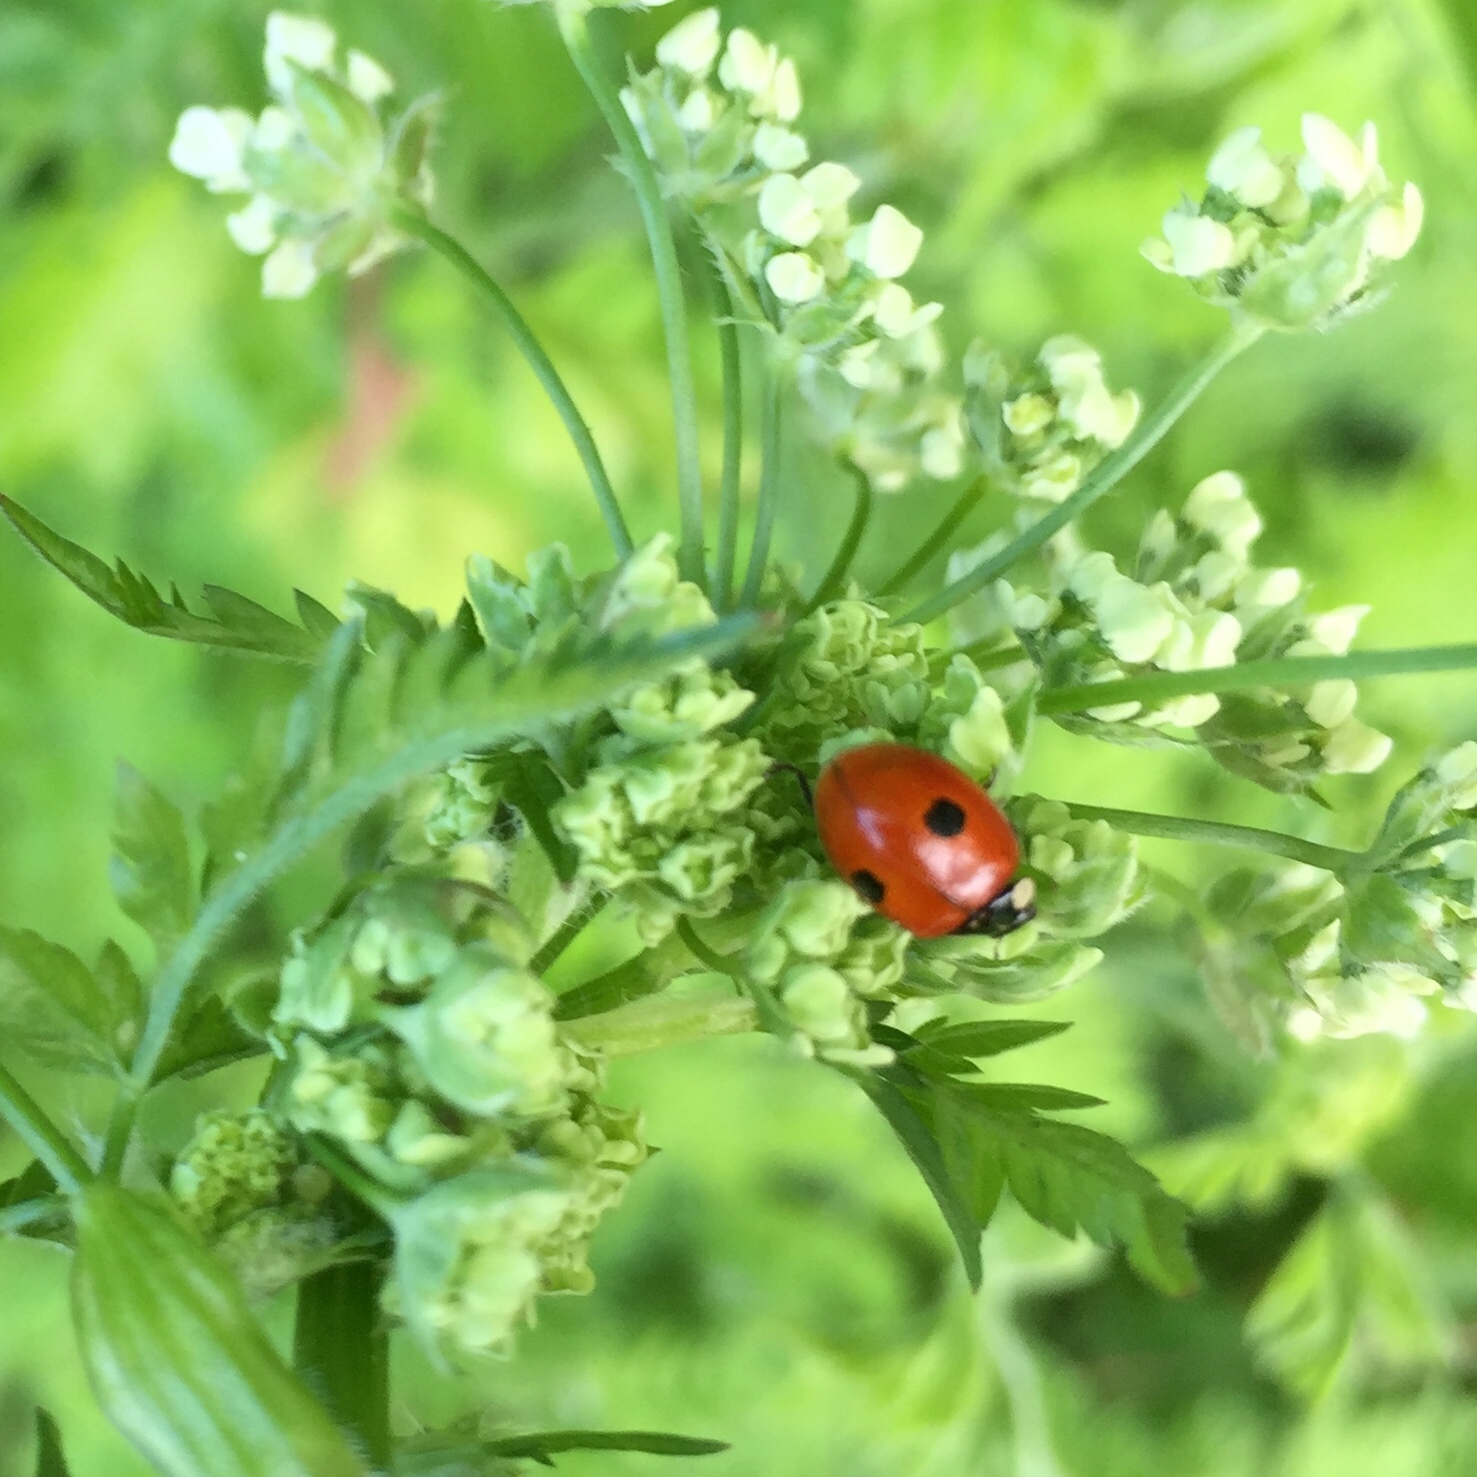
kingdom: Animalia
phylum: Arthropoda
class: Insecta
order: Coleoptera
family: Coccinellidae
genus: Adalia
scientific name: Adalia bipunctata
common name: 2-spot ladybird
